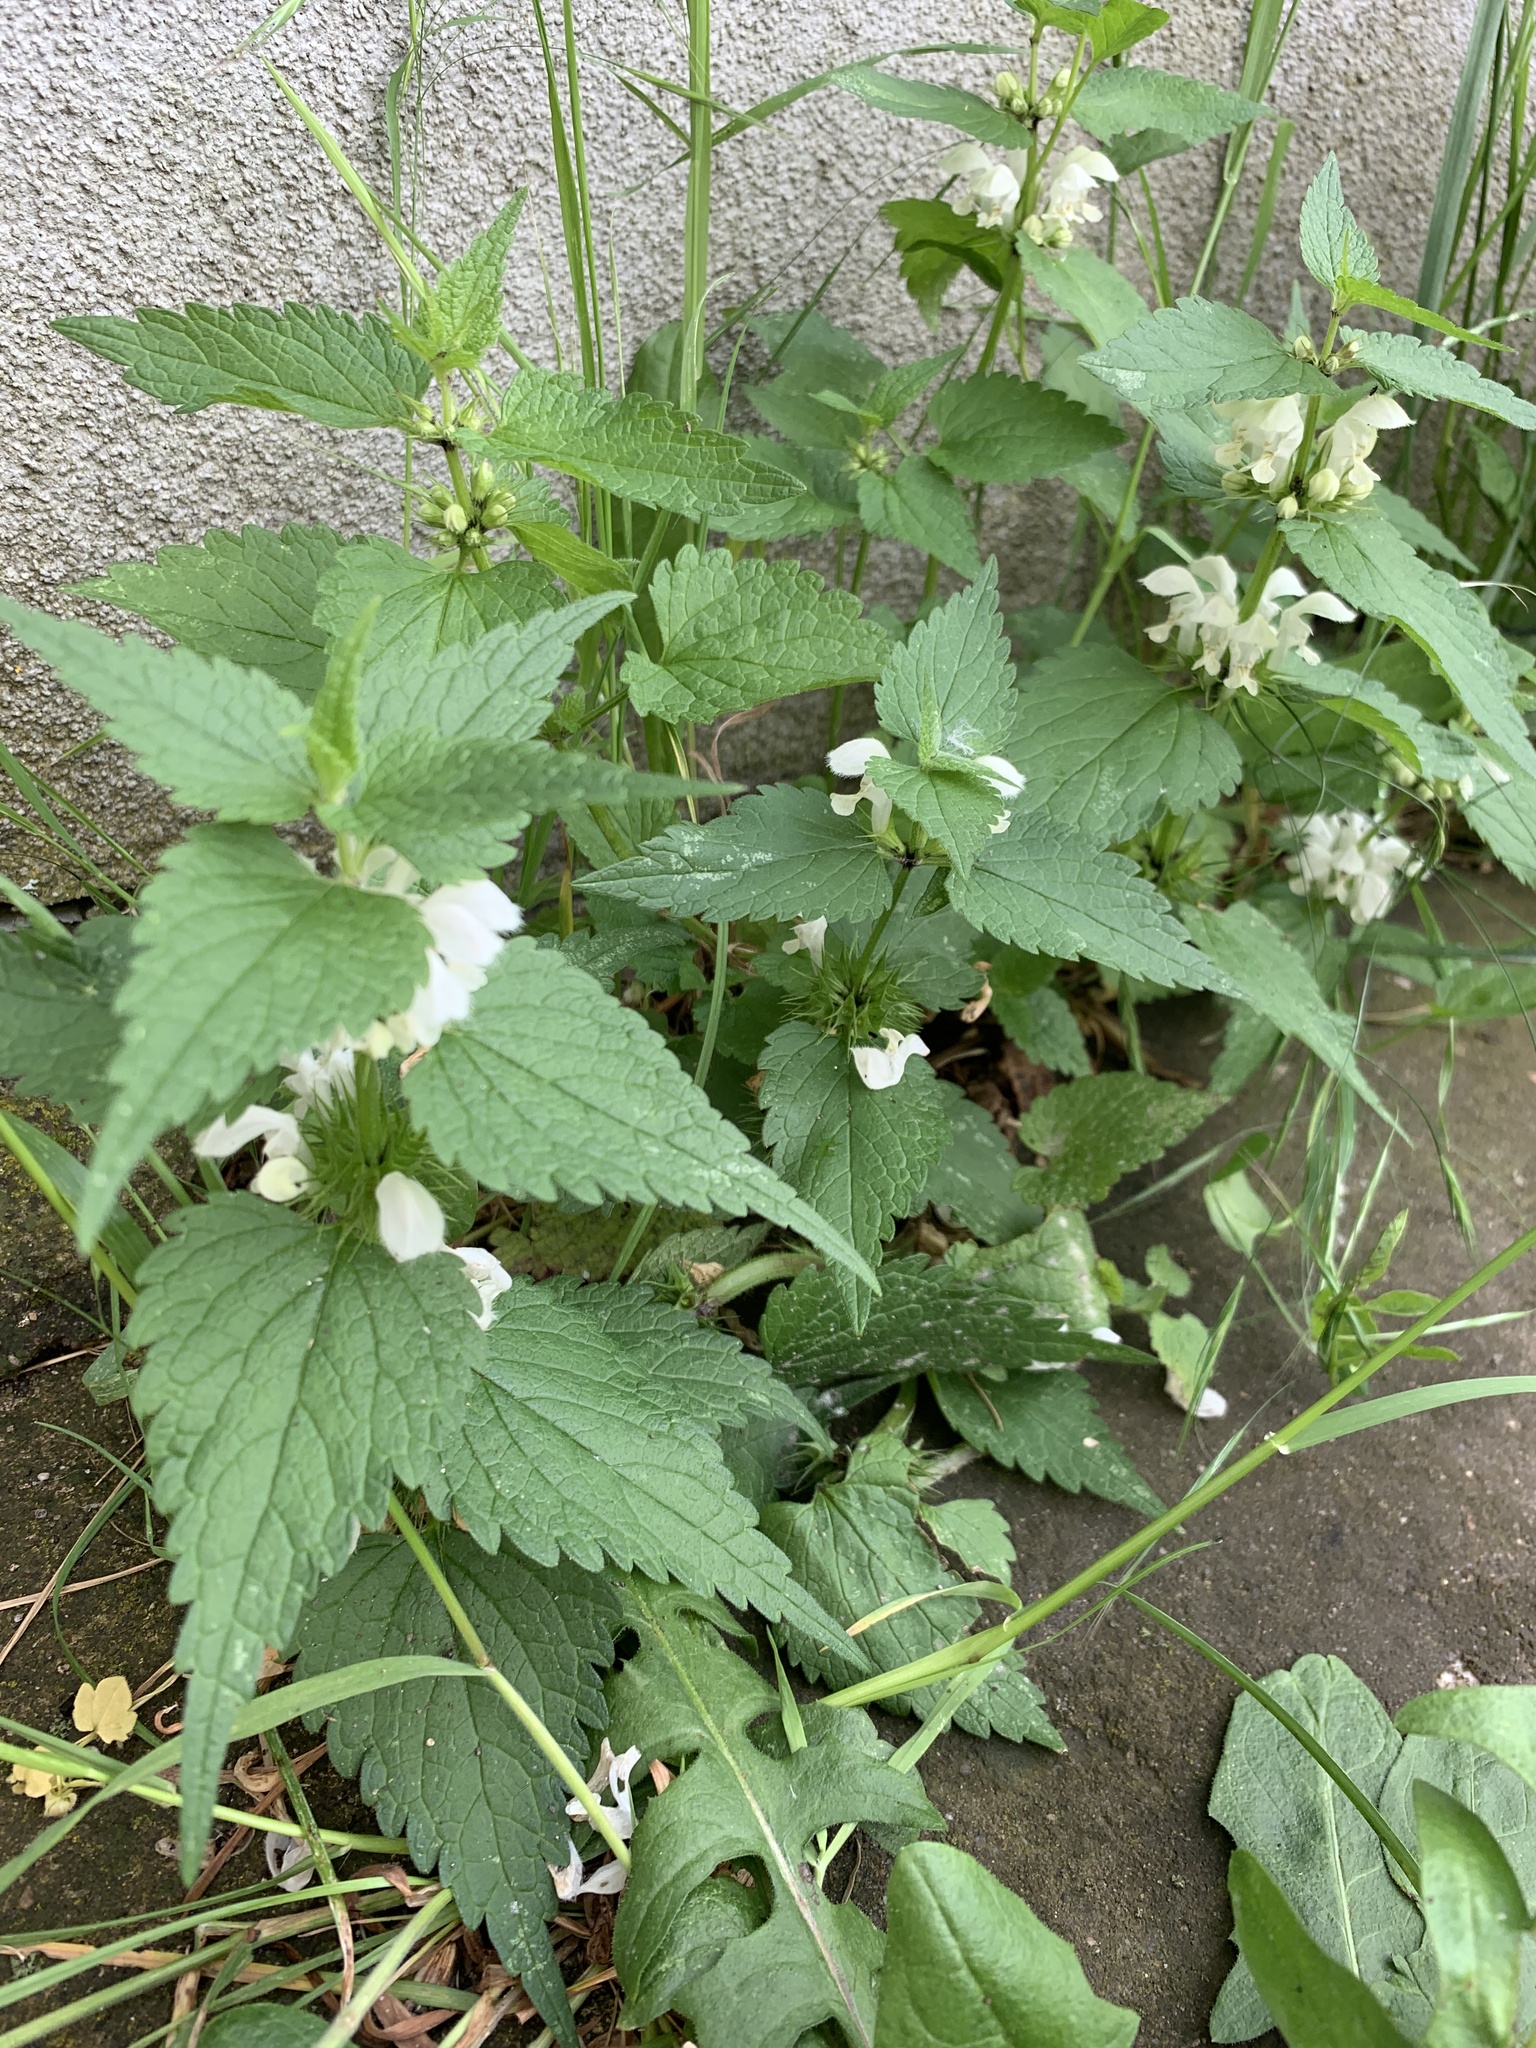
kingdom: Plantae
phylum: Tracheophyta
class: Magnoliopsida
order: Lamiales
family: Lamiaceae
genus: Lamium
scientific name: Lamium album
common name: White dead-nettle
